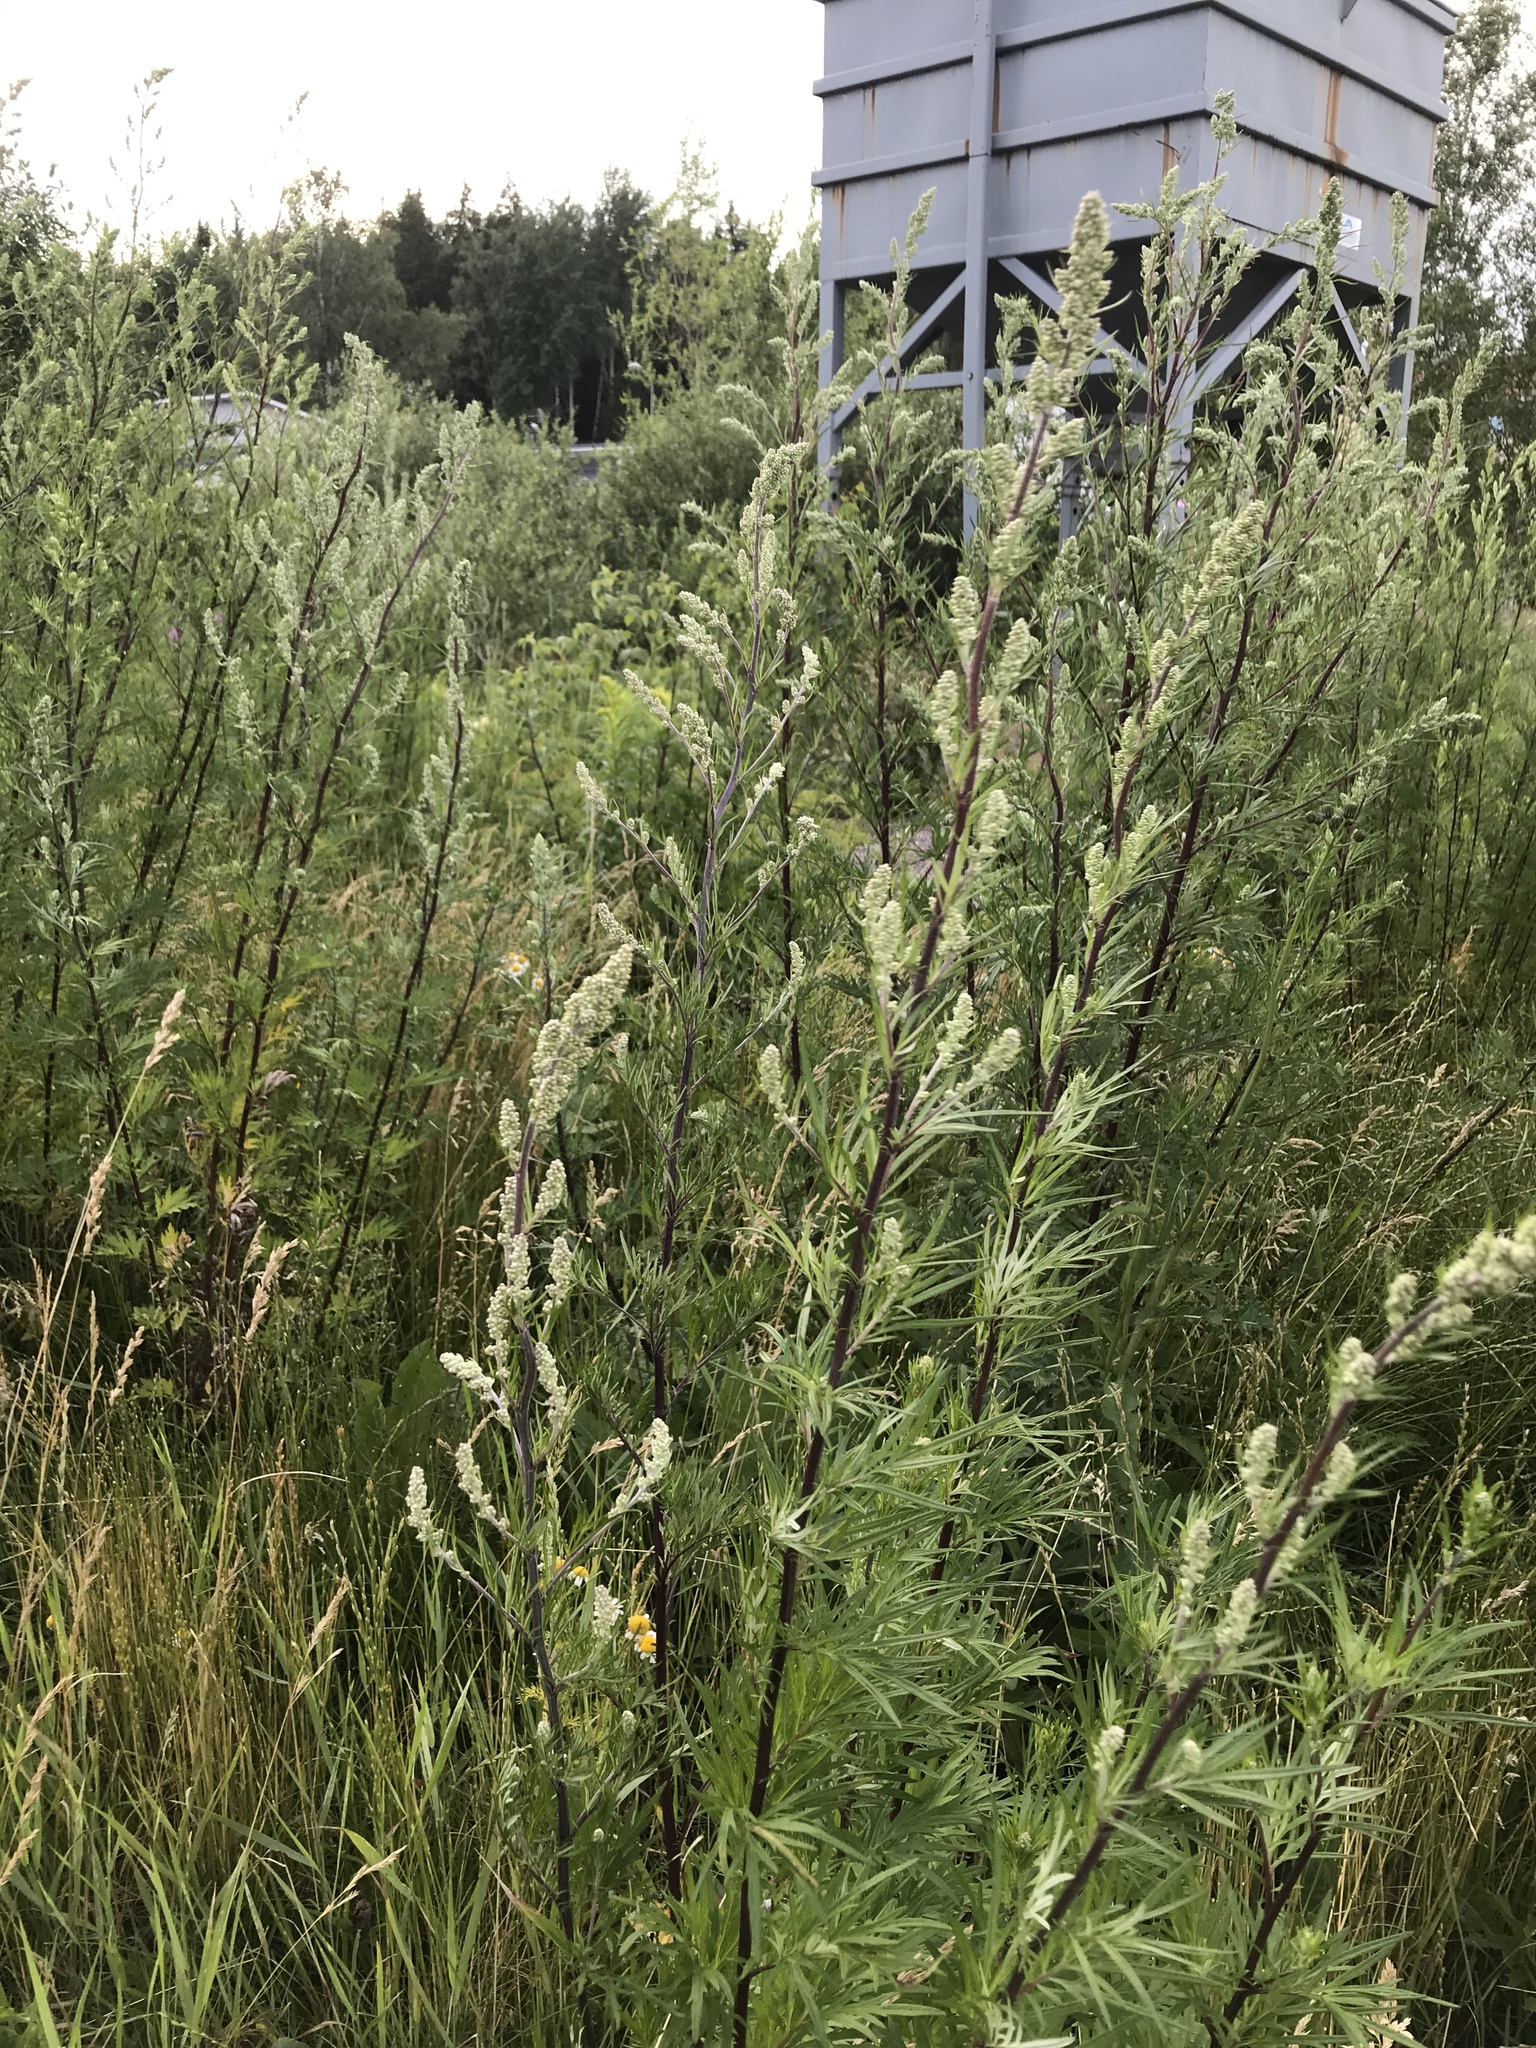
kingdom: Plantae
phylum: Tracheophyta
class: Magnoliopsida
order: Asterales
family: Asteraceae
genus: Artemisia
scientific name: Artemisia vulgaris
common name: Mugwort
